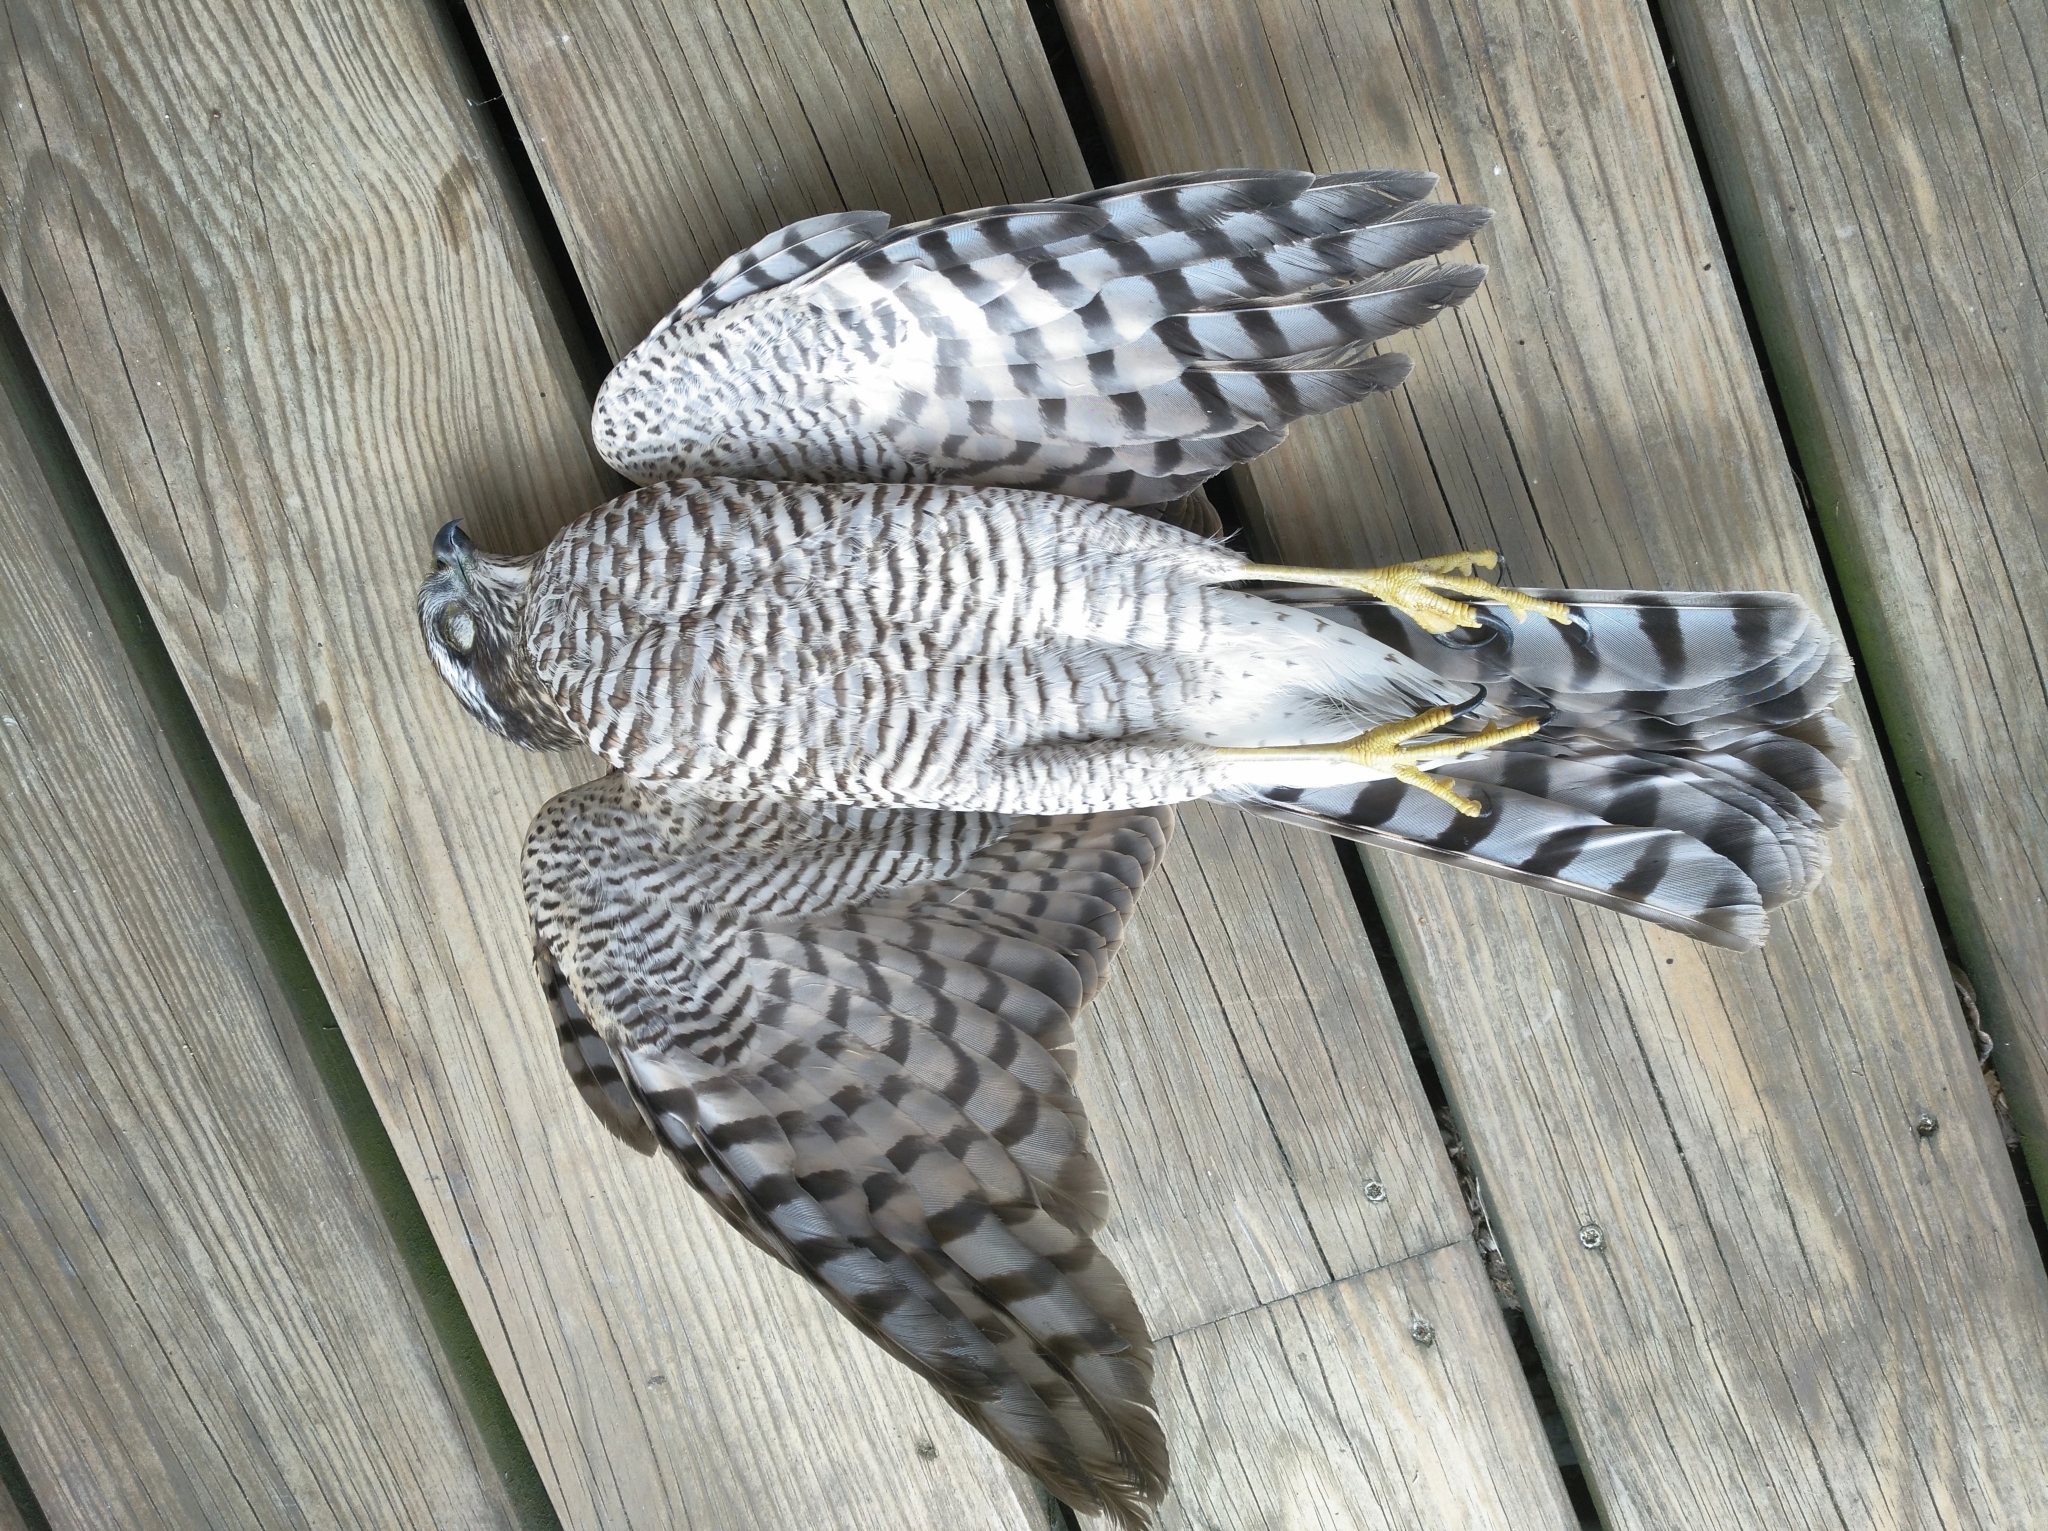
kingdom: Animalia
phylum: Chordata
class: Aves
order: Accipitriformes
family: Accipitridae
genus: Accipiter
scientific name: Accipiter nisus
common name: Eurasian sparrowhawk
